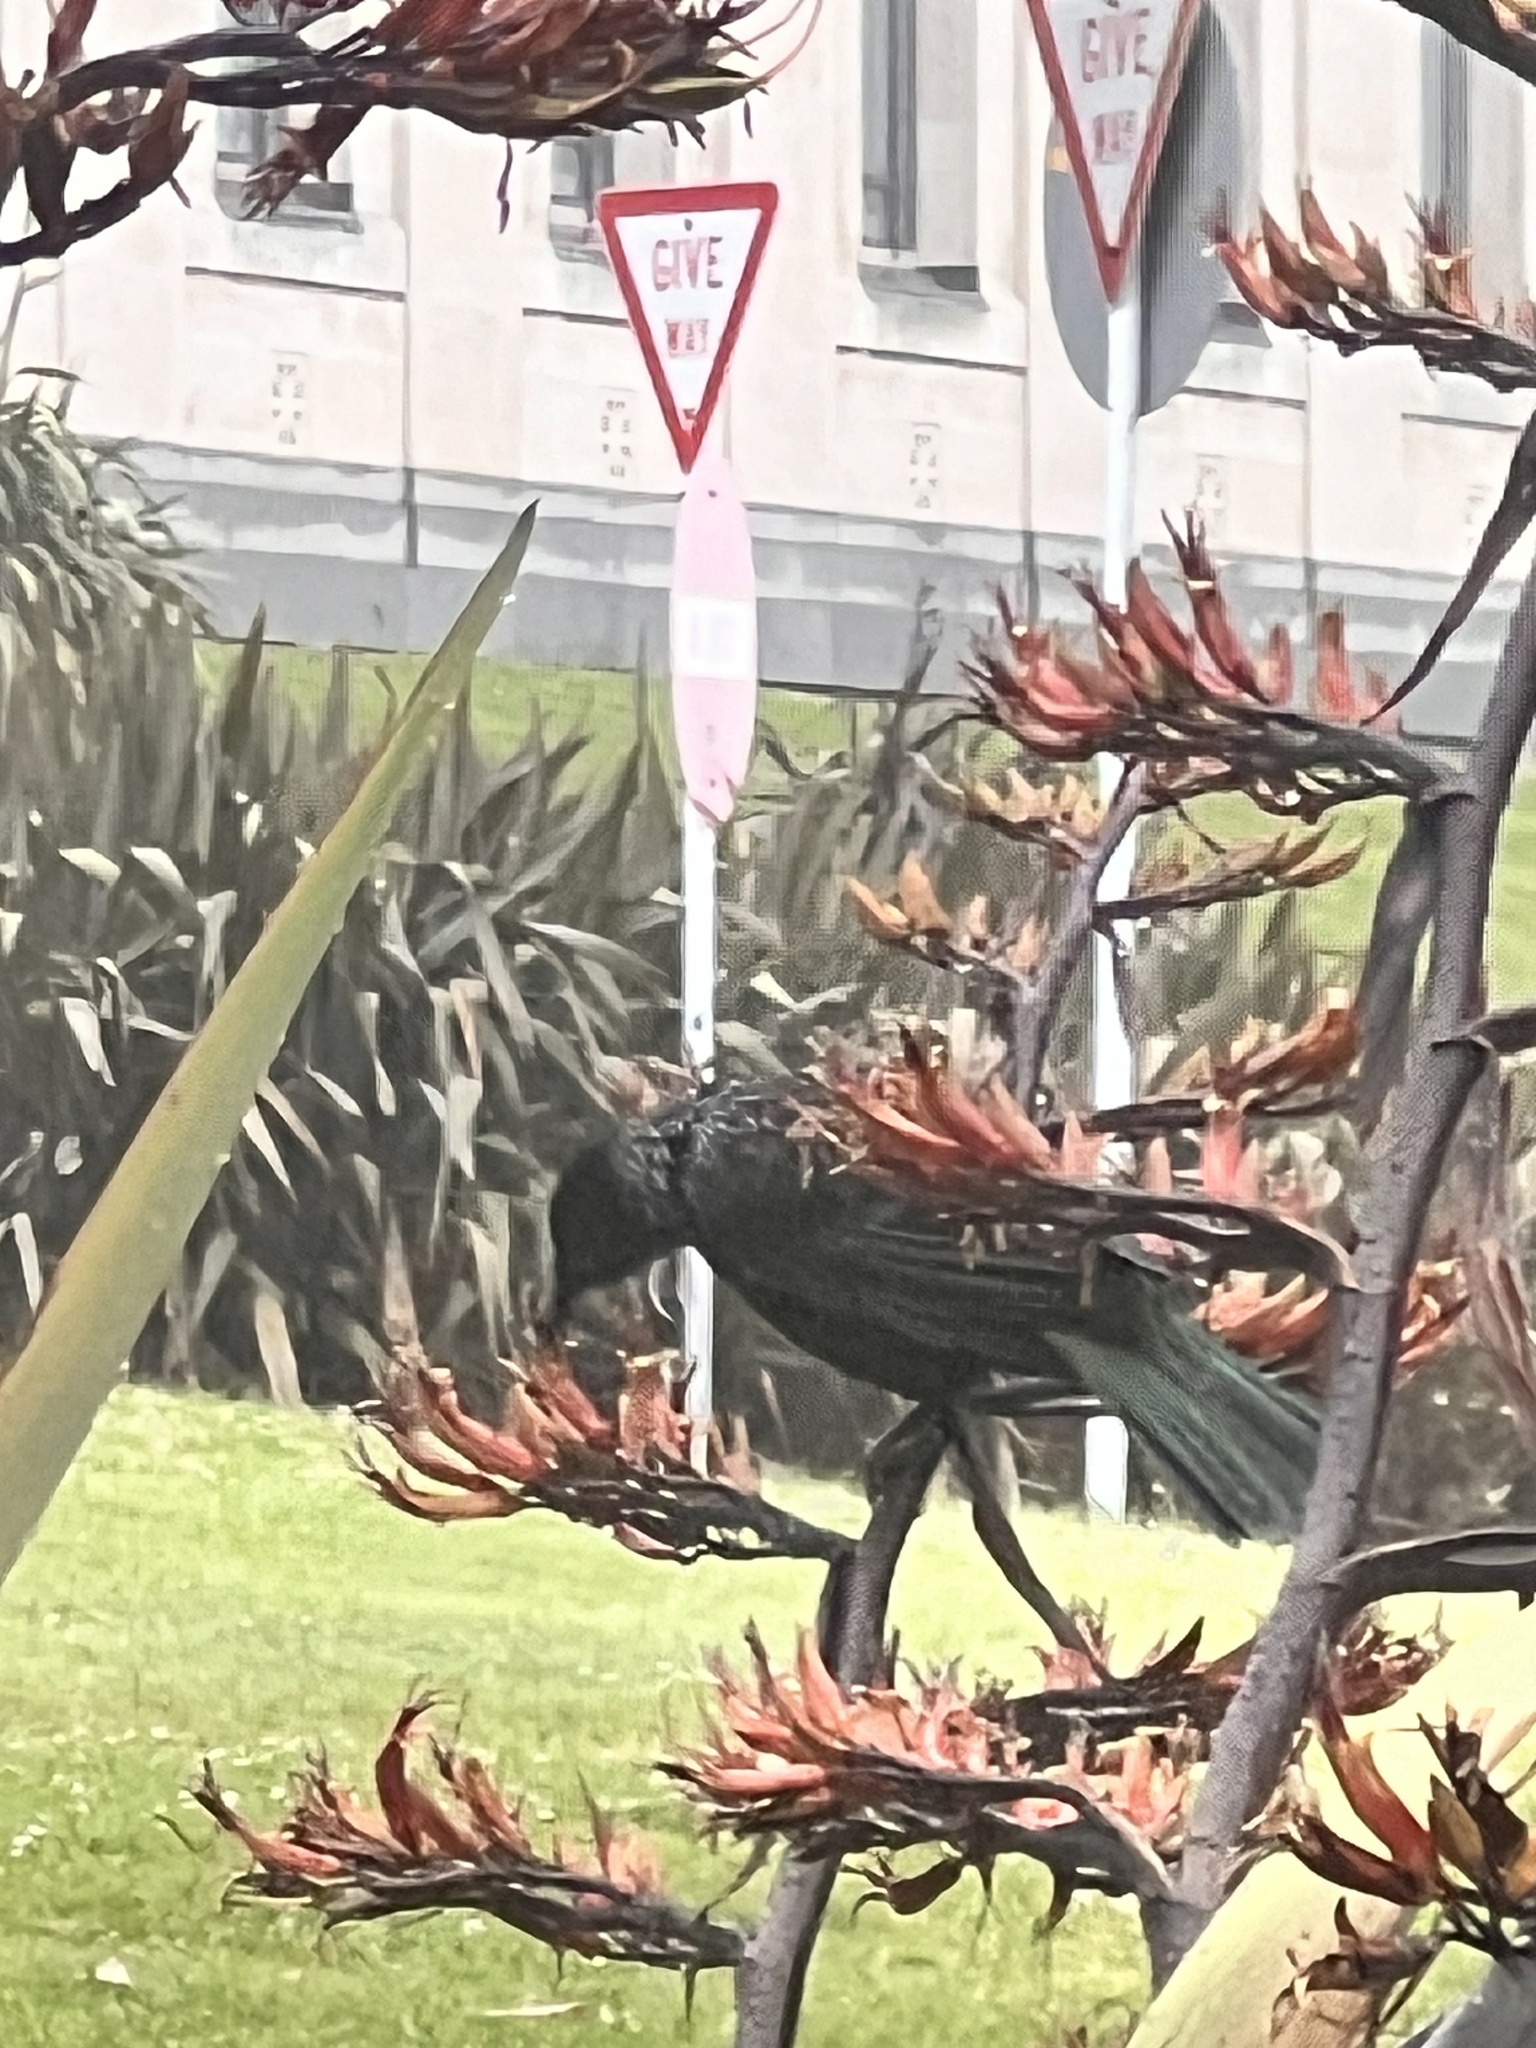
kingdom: Animalia
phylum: Chordata
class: Aves
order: Passeriformes
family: Meliphagidae
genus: Prosthemadera
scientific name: Prosthemadera novaeseelandiae
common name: Tui
